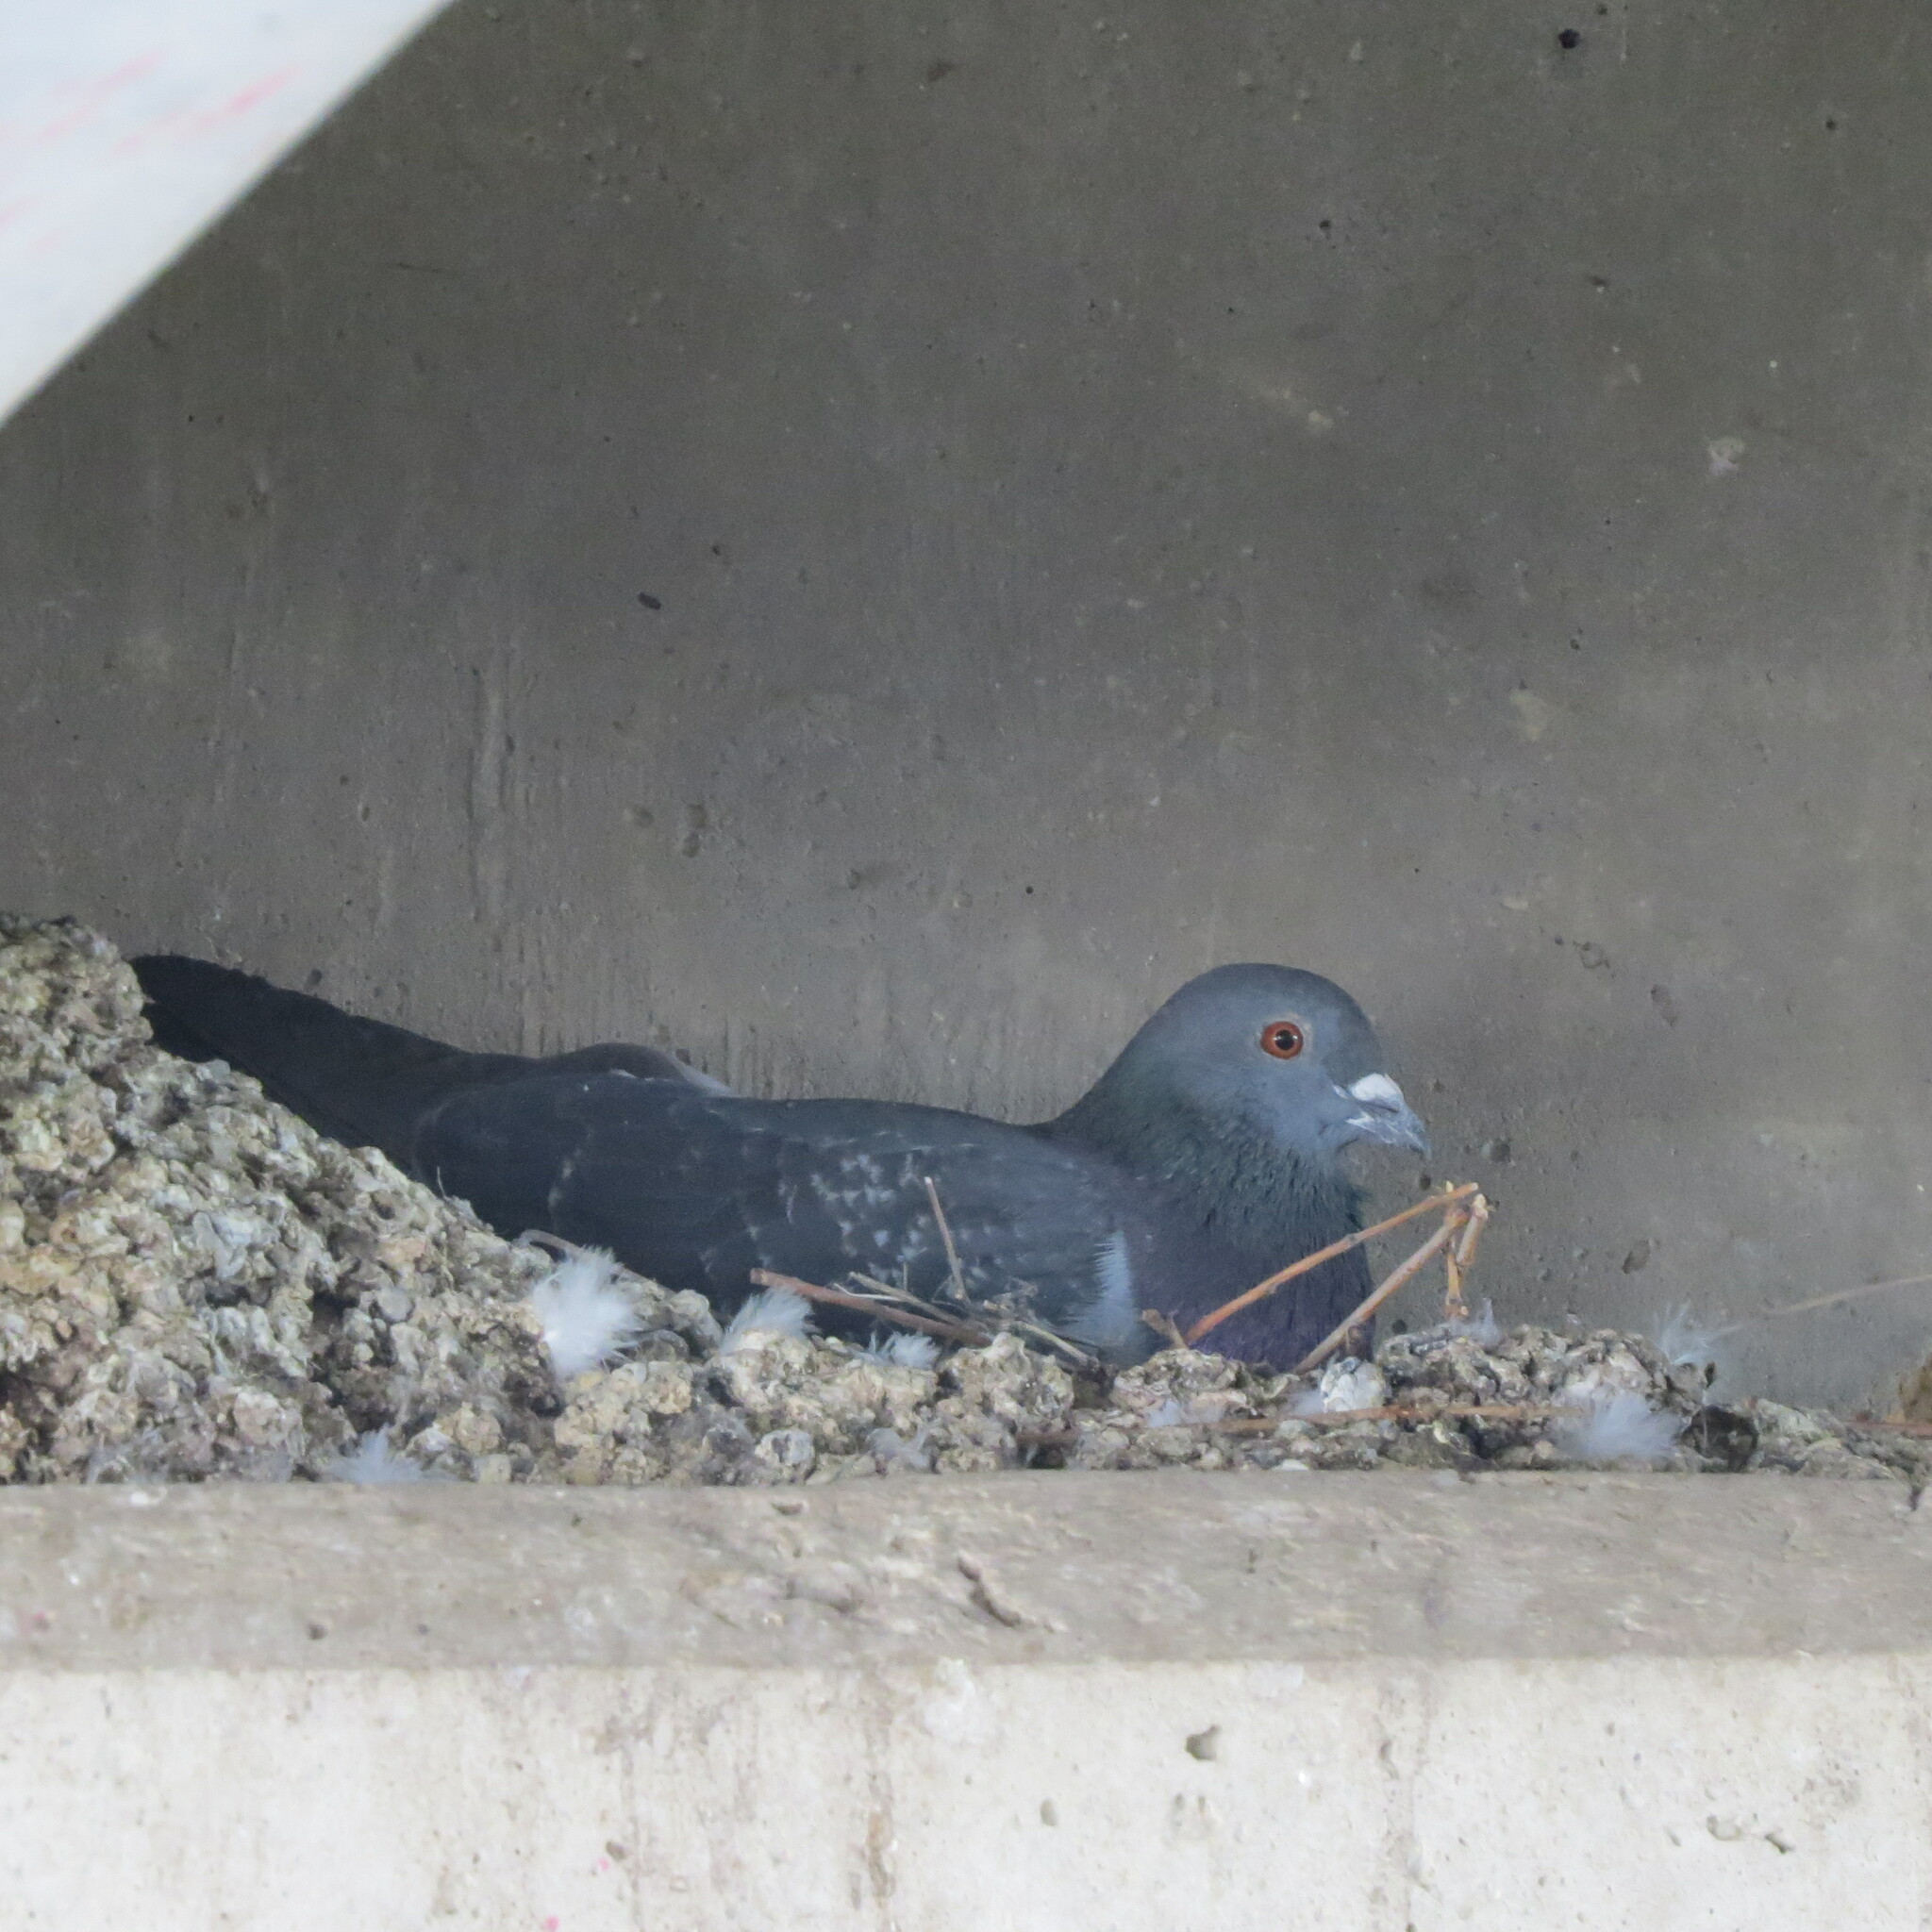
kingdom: Animalia
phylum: Chordata
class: Aves
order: Columbiformes
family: Columbidae
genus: Columba
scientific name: Columba livia
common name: Rock pigeon
